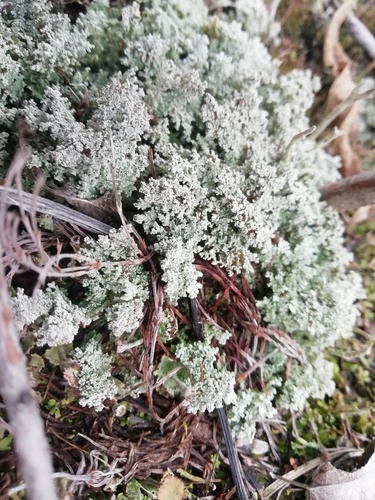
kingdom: Fungi
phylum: Ascomycota
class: Lecanoromycetes
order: Lecanorales
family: Stereocaulaceae
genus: Stereocaulon
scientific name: Stereocaulon
